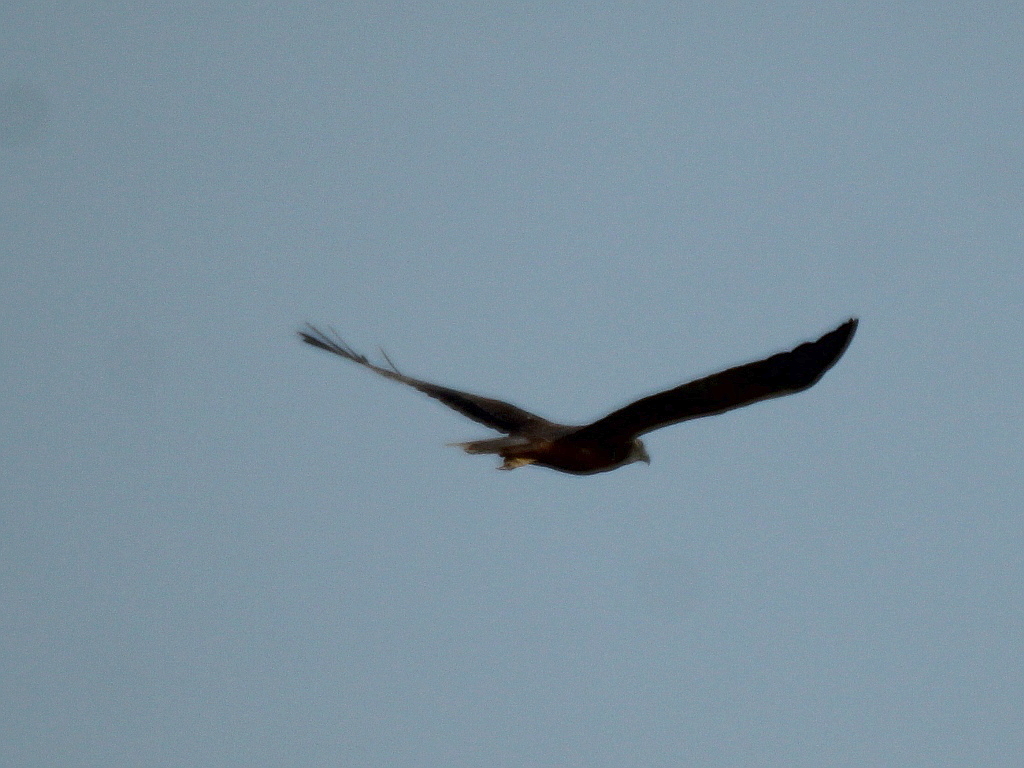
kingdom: Animalia
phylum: Chordata
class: Aves
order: Accipitriformes
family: Accipitridae
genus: Circus
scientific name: Circus aeruginosus
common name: Western marsh harrier
